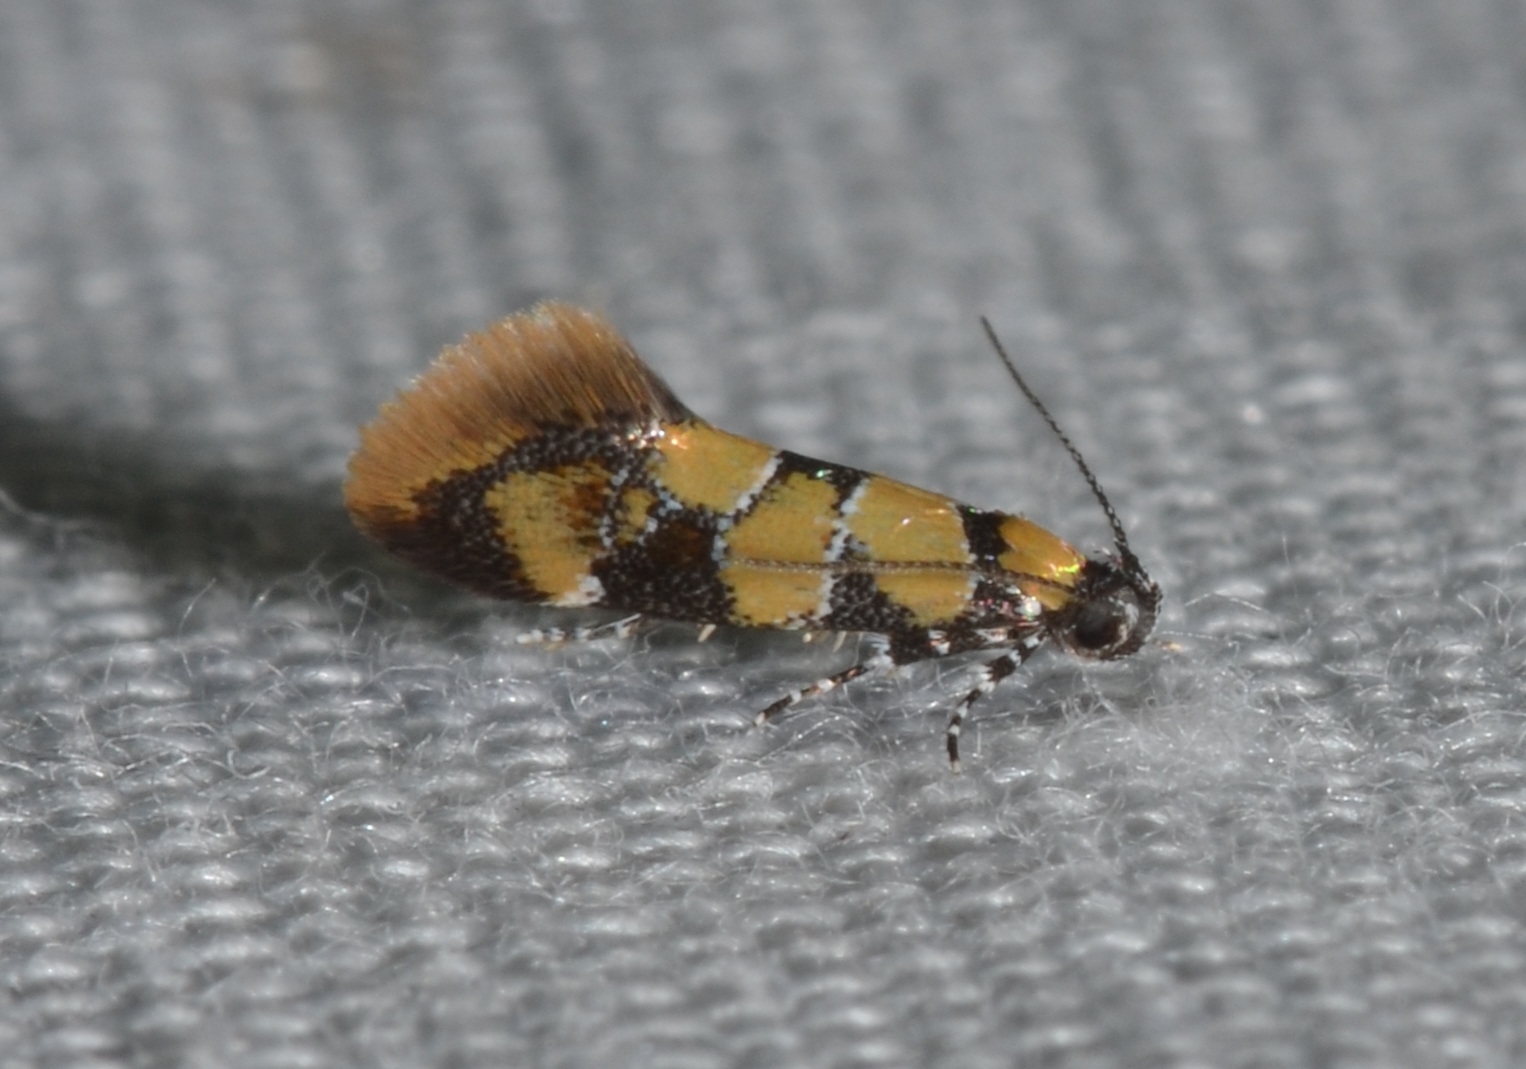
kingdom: Animalia
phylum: Arthropoda
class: Insecta
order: Lepidoptera
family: Oecophoridae
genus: Decantha
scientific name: Decantha borkhausenii
